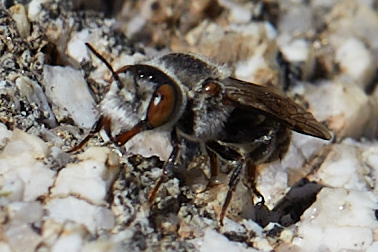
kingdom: Animalia
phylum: Arthropoda
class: Insecta
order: Hymenoptera
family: Megachilidae
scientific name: Megachilidae
